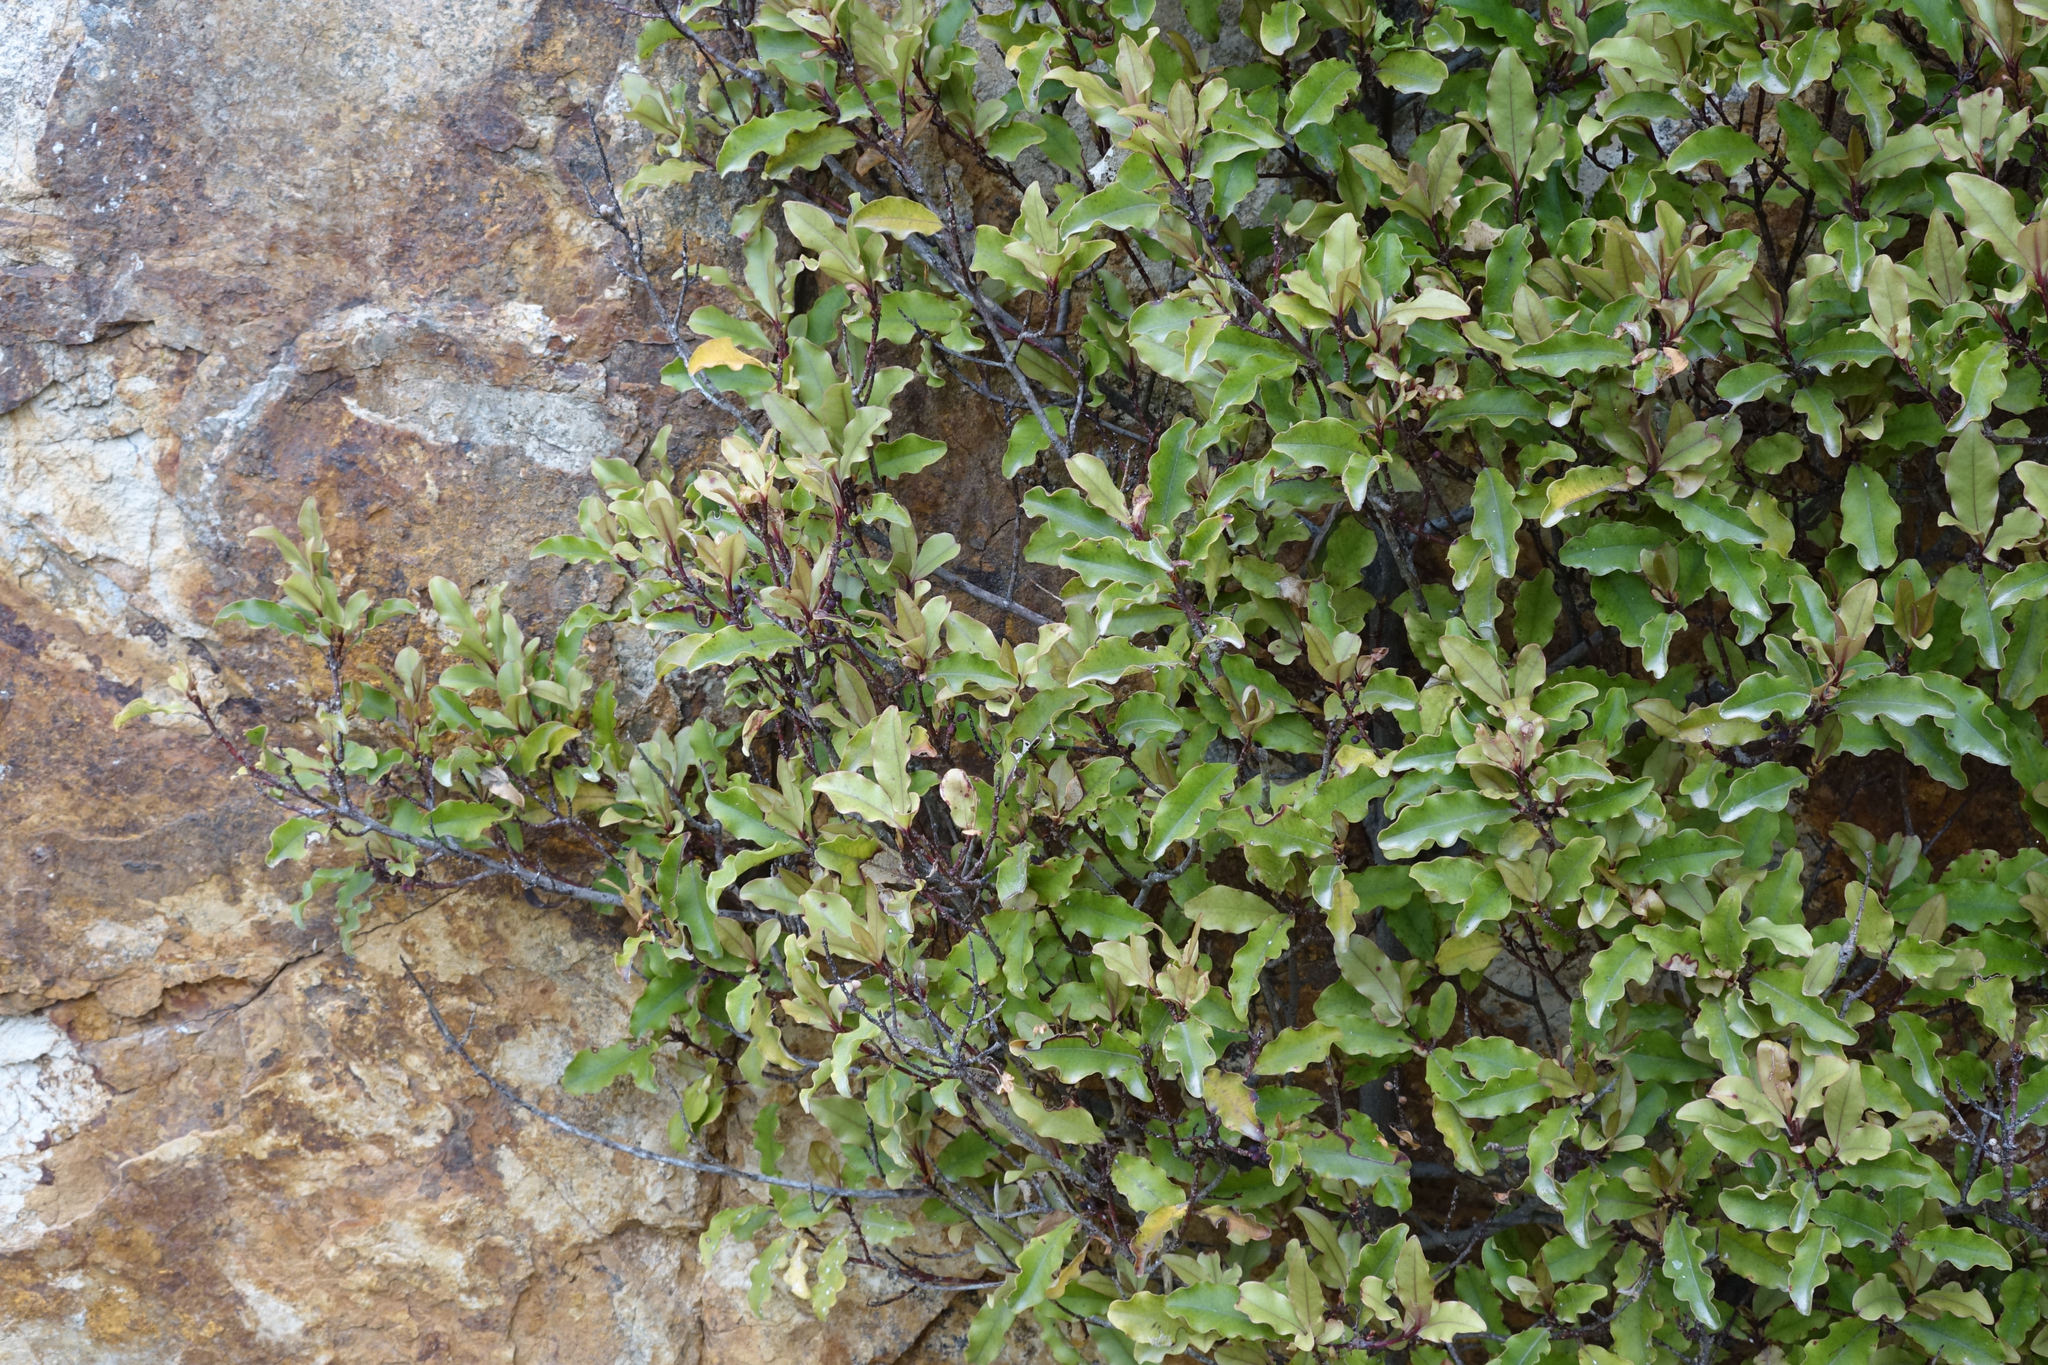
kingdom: Plantae
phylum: Tracheophyta
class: Magnoliopsida
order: Ericales
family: Primulaceae
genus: Myrsine
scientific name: Myrsine australis
